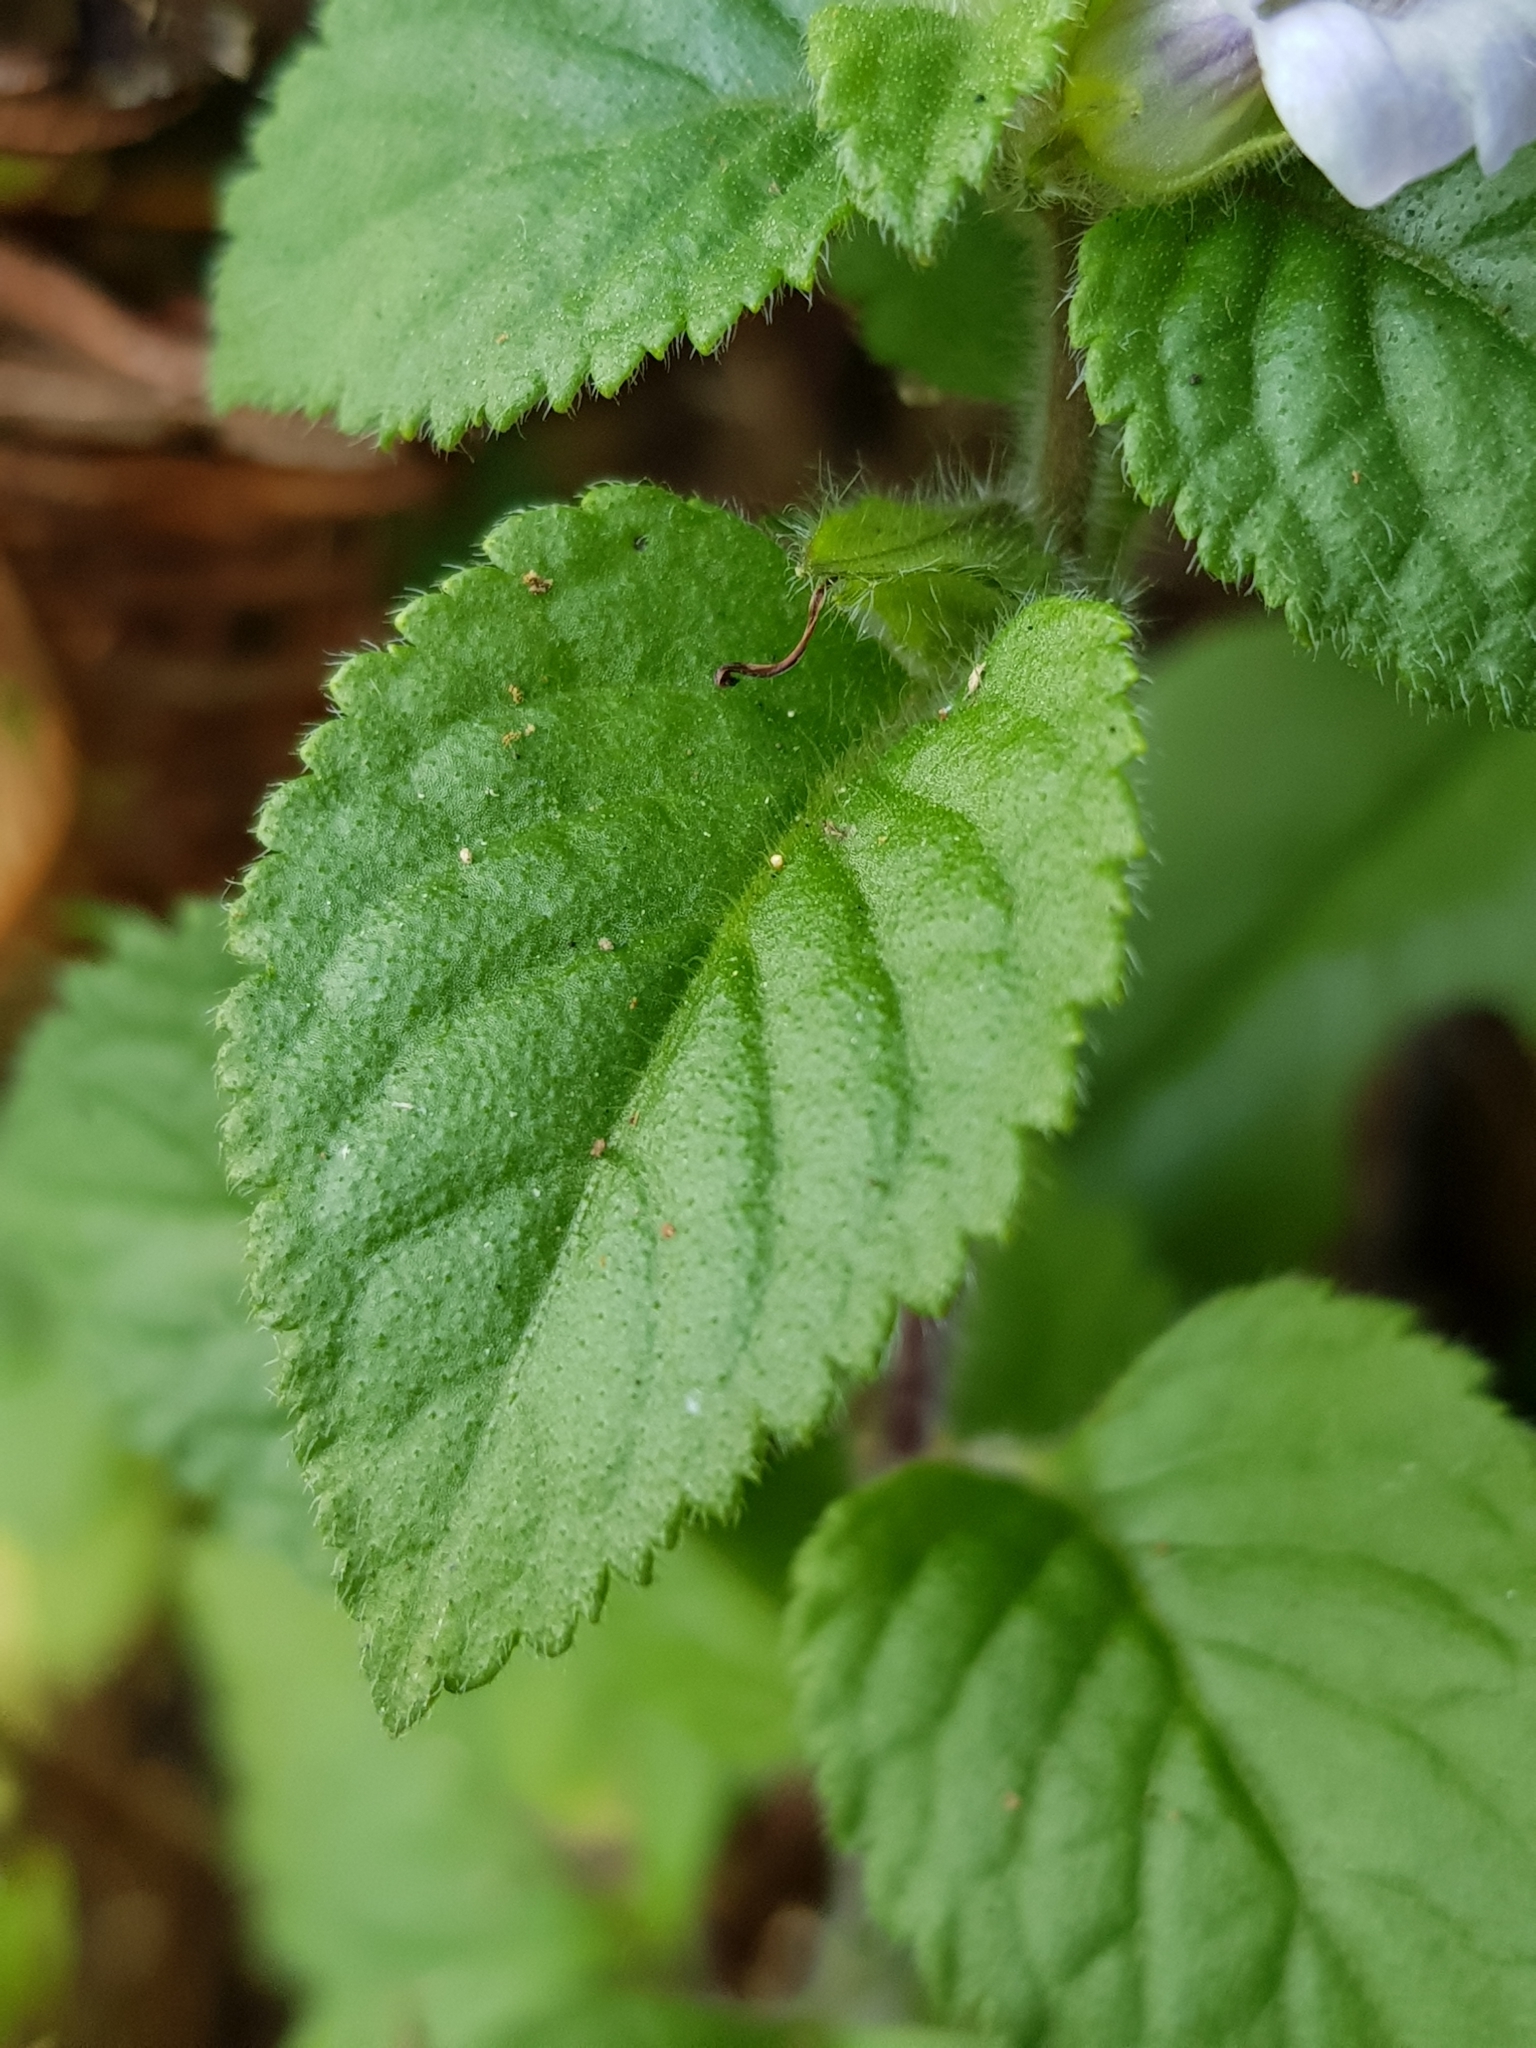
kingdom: Plantae
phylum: Tracheophyta
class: Magnoliopsida
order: Lamiales
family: Plantaginaceae
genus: Adenosma
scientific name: Adenosma javanica
